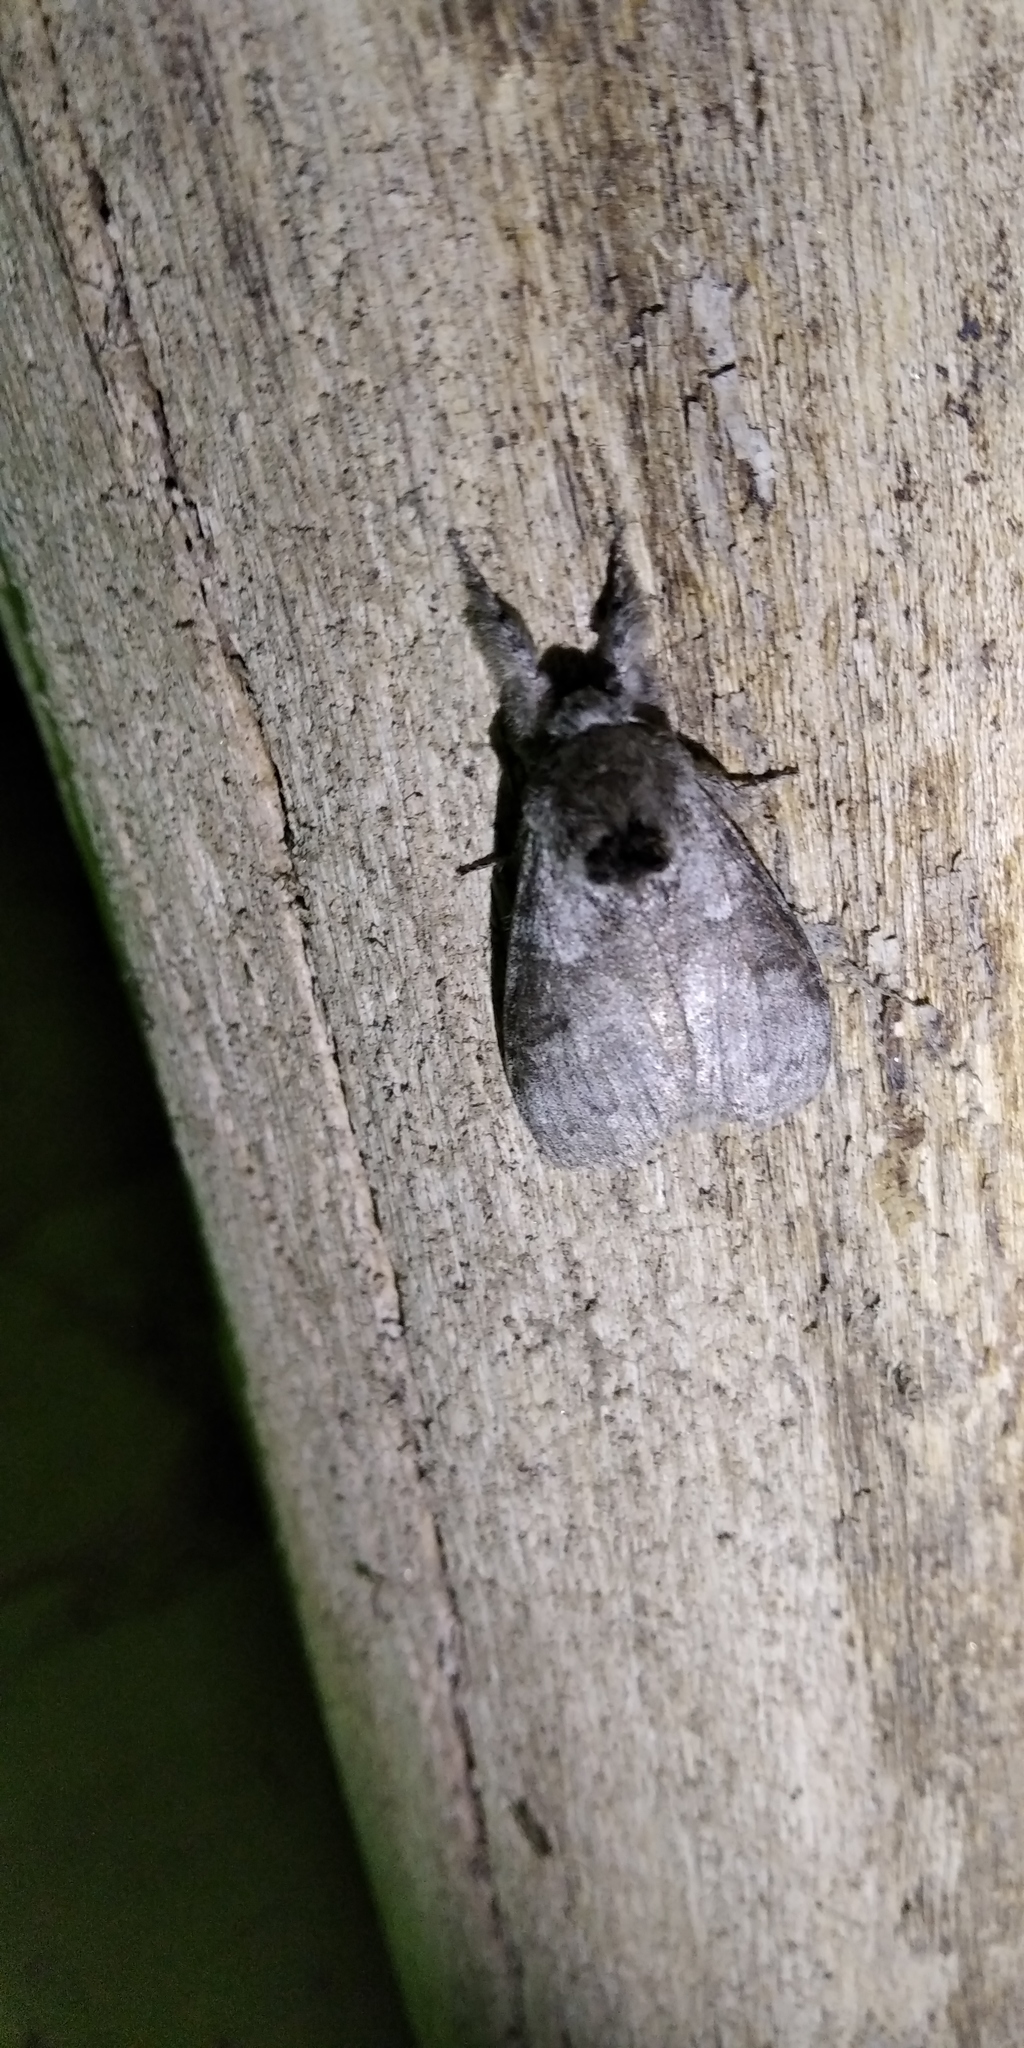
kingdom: Animalia
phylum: Arthropoda
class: Insecta
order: Lepidoptera
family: Erebidae
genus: Calliteara
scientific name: Calliteara pudibunda
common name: Pale tussock
